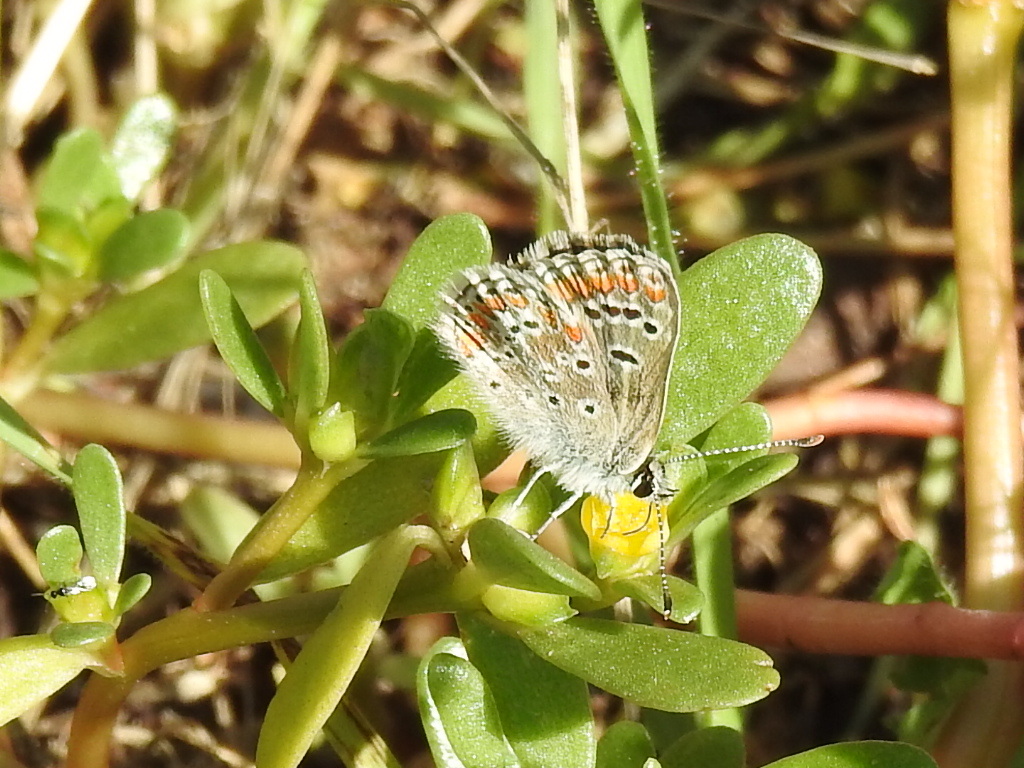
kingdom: Animalia
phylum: Arthropoda
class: Insecta
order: Lepidoptera
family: Lycaenidae
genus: Aricia
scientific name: Aricia agestis
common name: Brown argus
